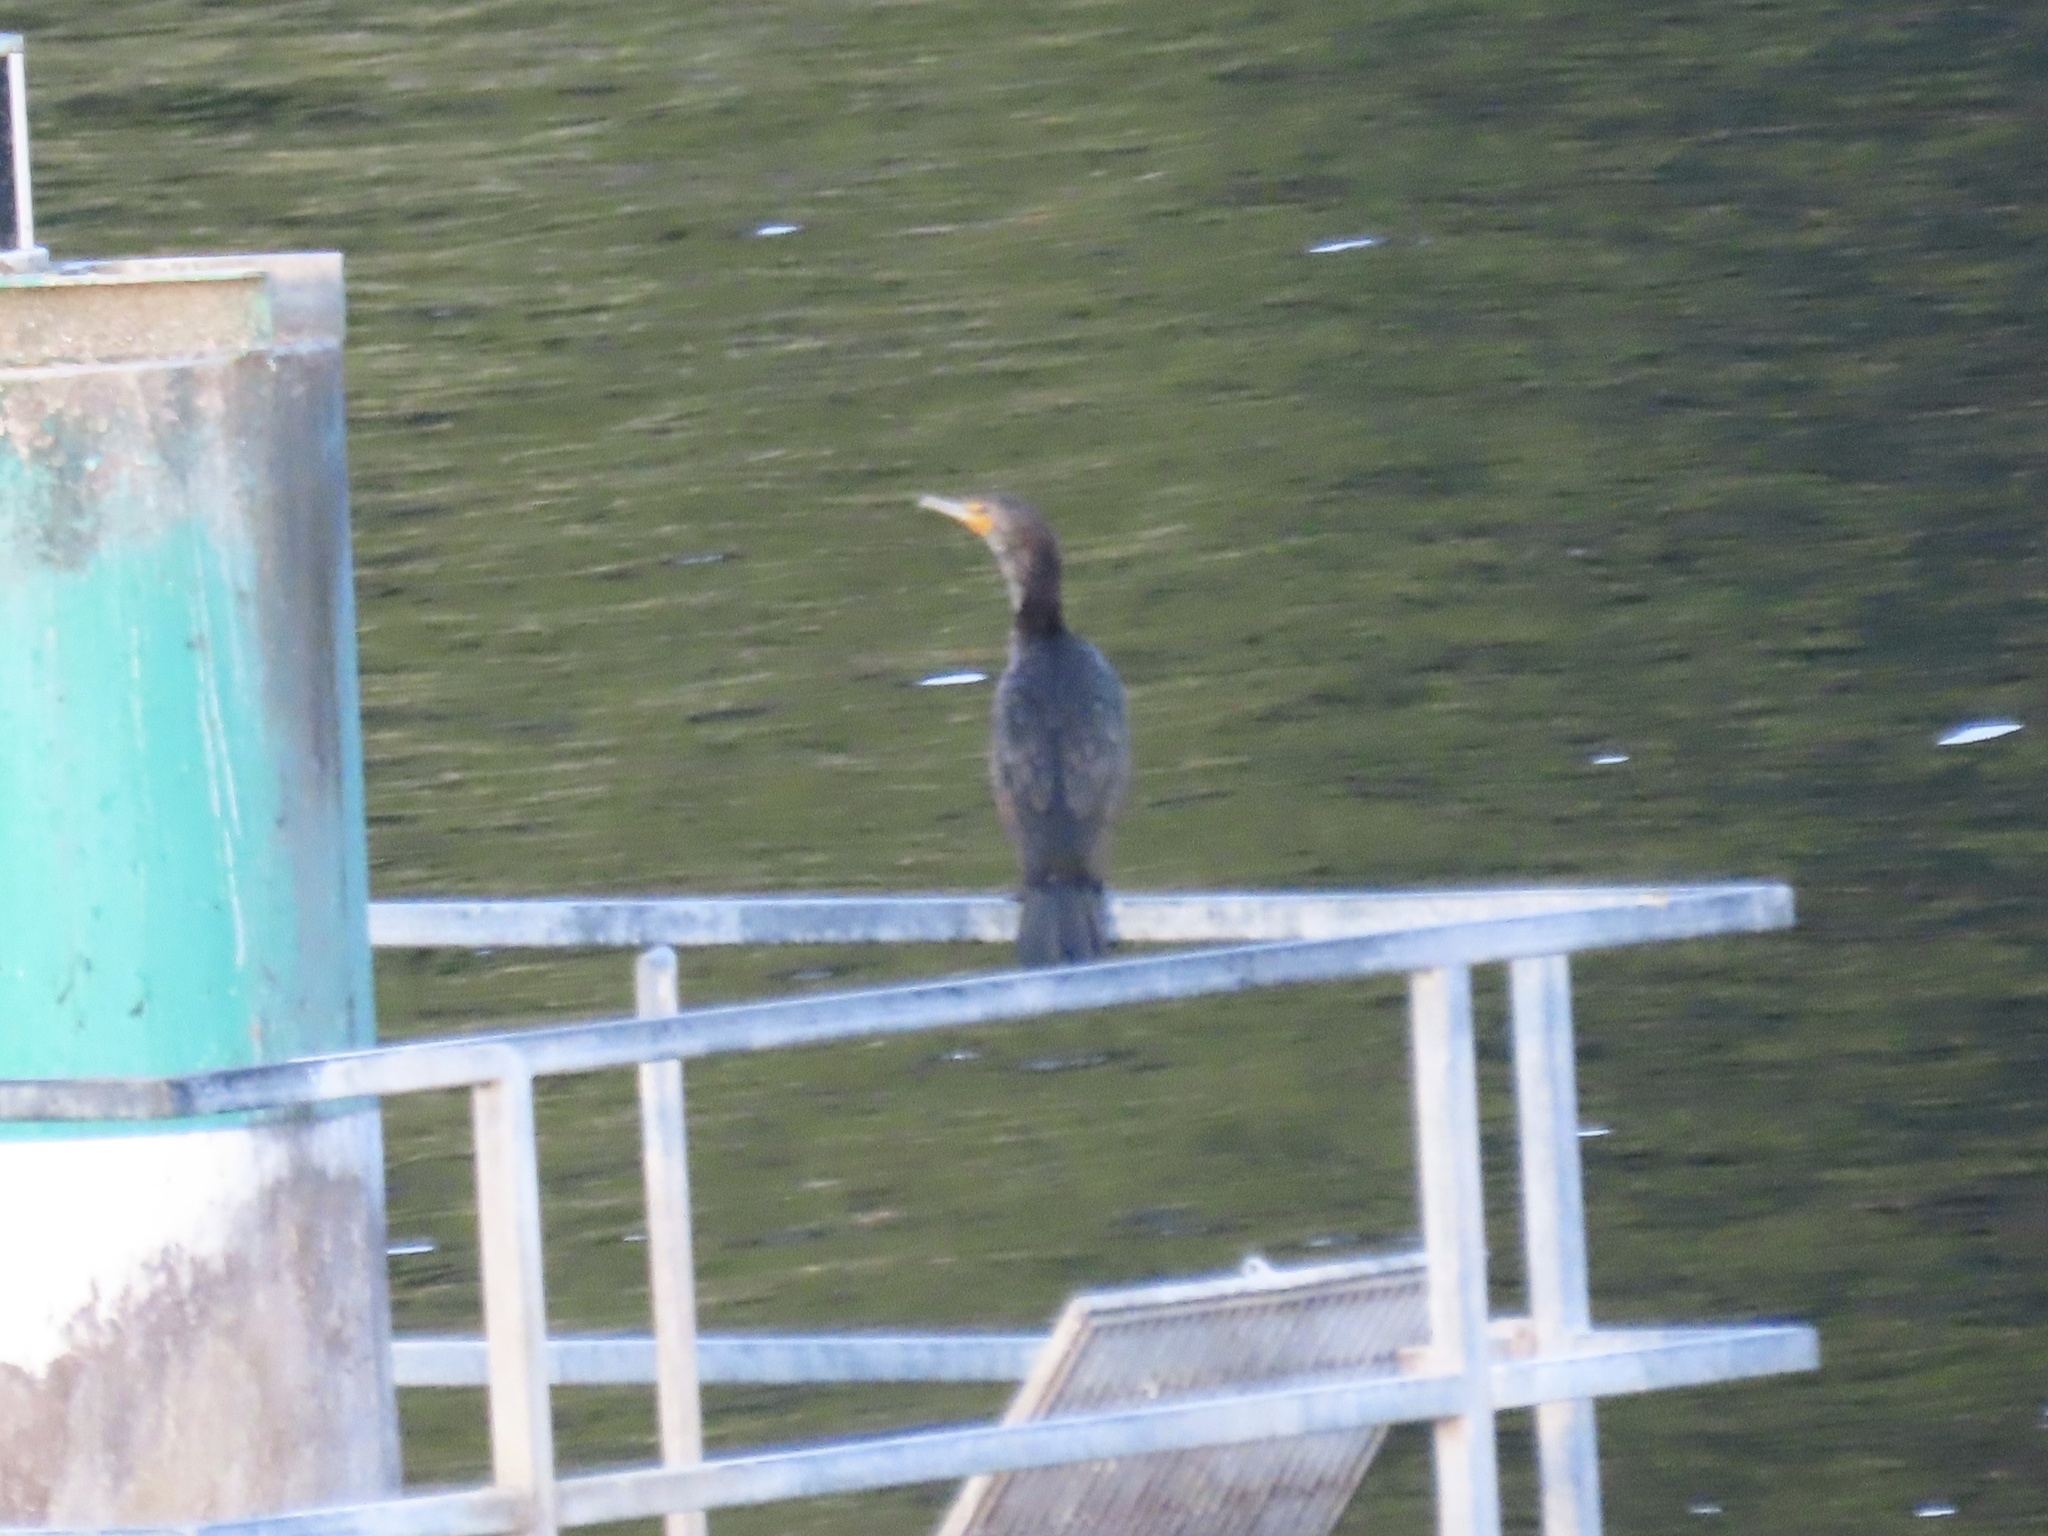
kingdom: Animalia
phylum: Chordata
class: Aves
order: Suliformes
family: Phalacrocoracidae
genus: Phalacrocorax
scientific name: Phalacrocorax auritus
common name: Double-crested cormorant
